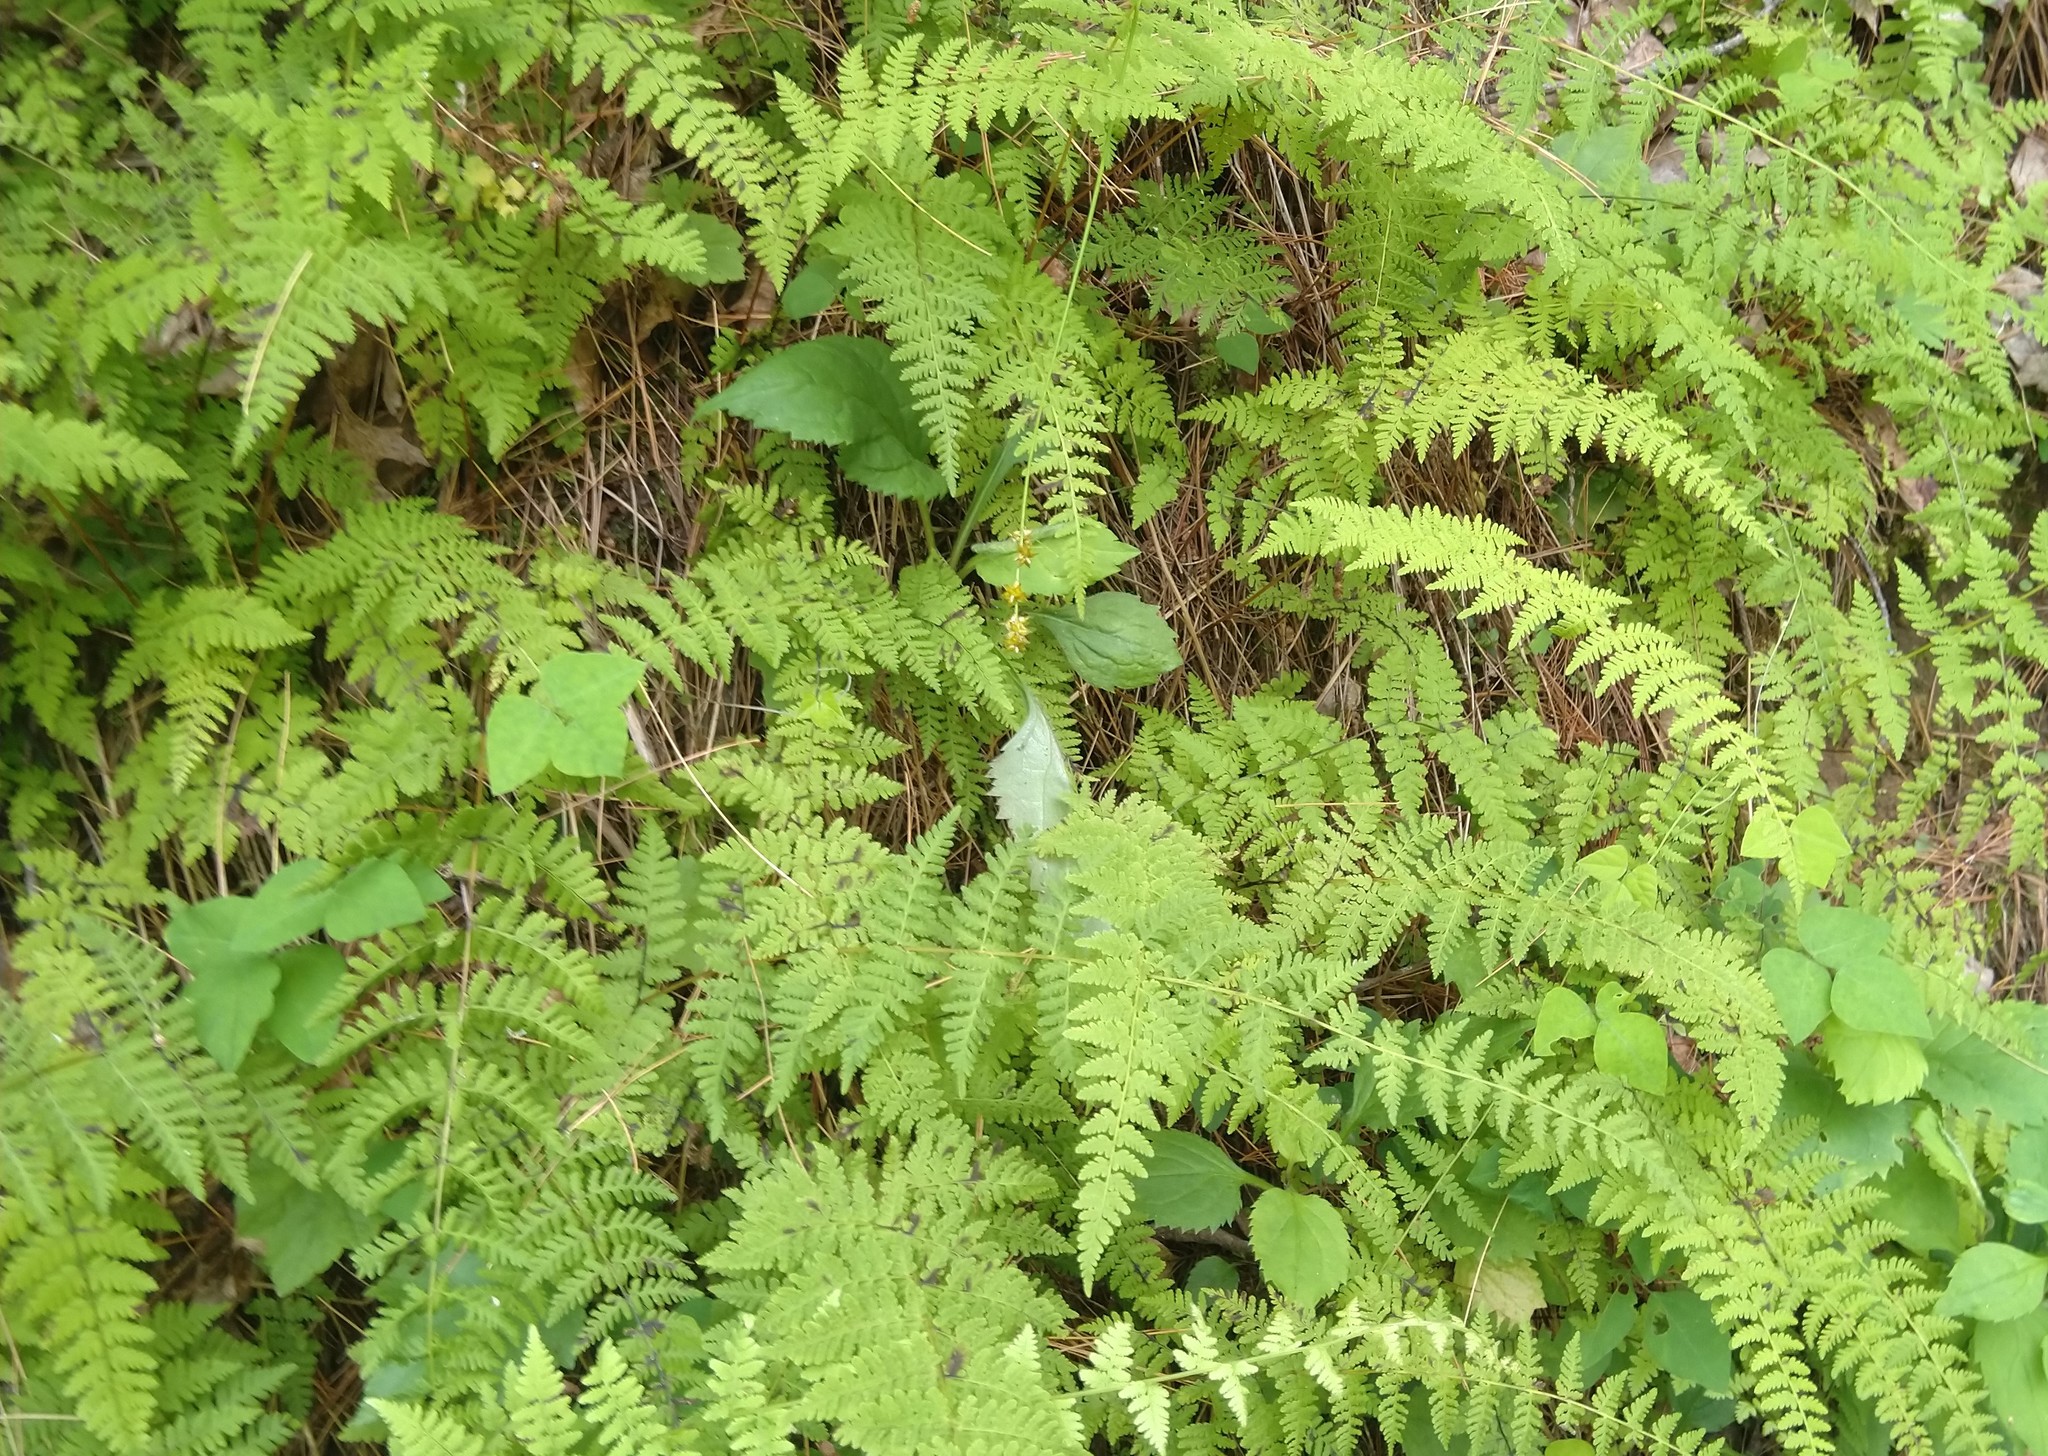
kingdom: Plantae
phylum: Tracheophyta
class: Polypodiopsida
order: Polypodiales
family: Cystopteridaceae
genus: Cystopteris
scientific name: Cystopteris bulbifera
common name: Bulblet bladder fern
